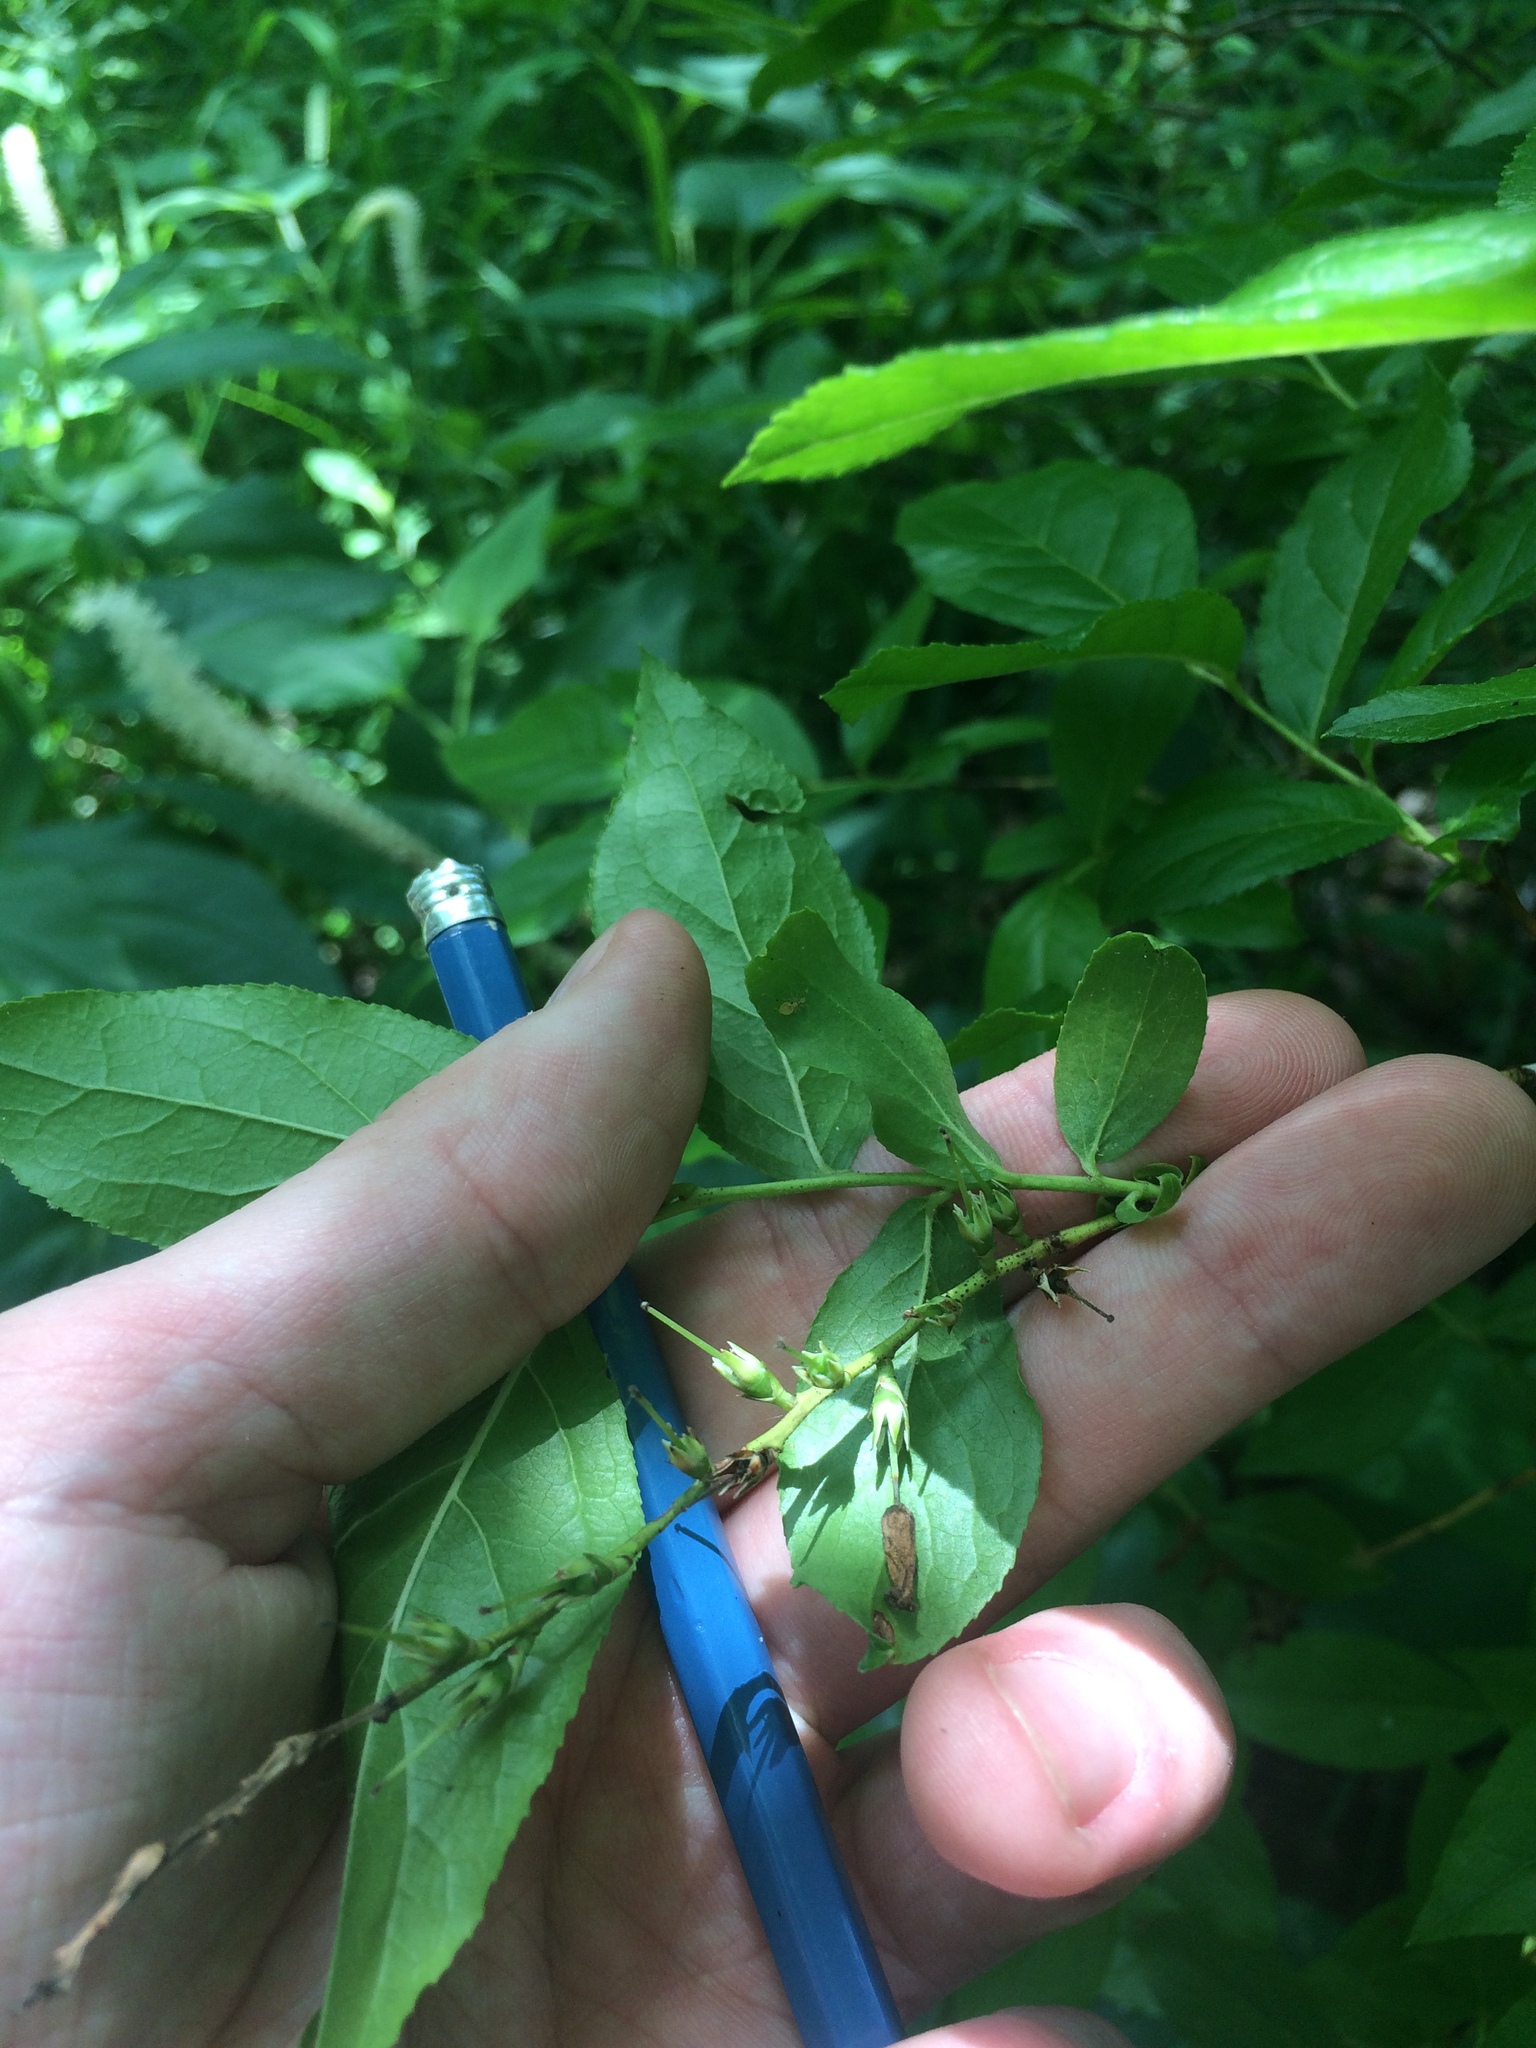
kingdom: Plantae
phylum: Tracheophyta
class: Magnoliopsida
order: Ericales
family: Ericaceae
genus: Eubotrys
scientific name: Eubotrys racemosa
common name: Fetterbush
